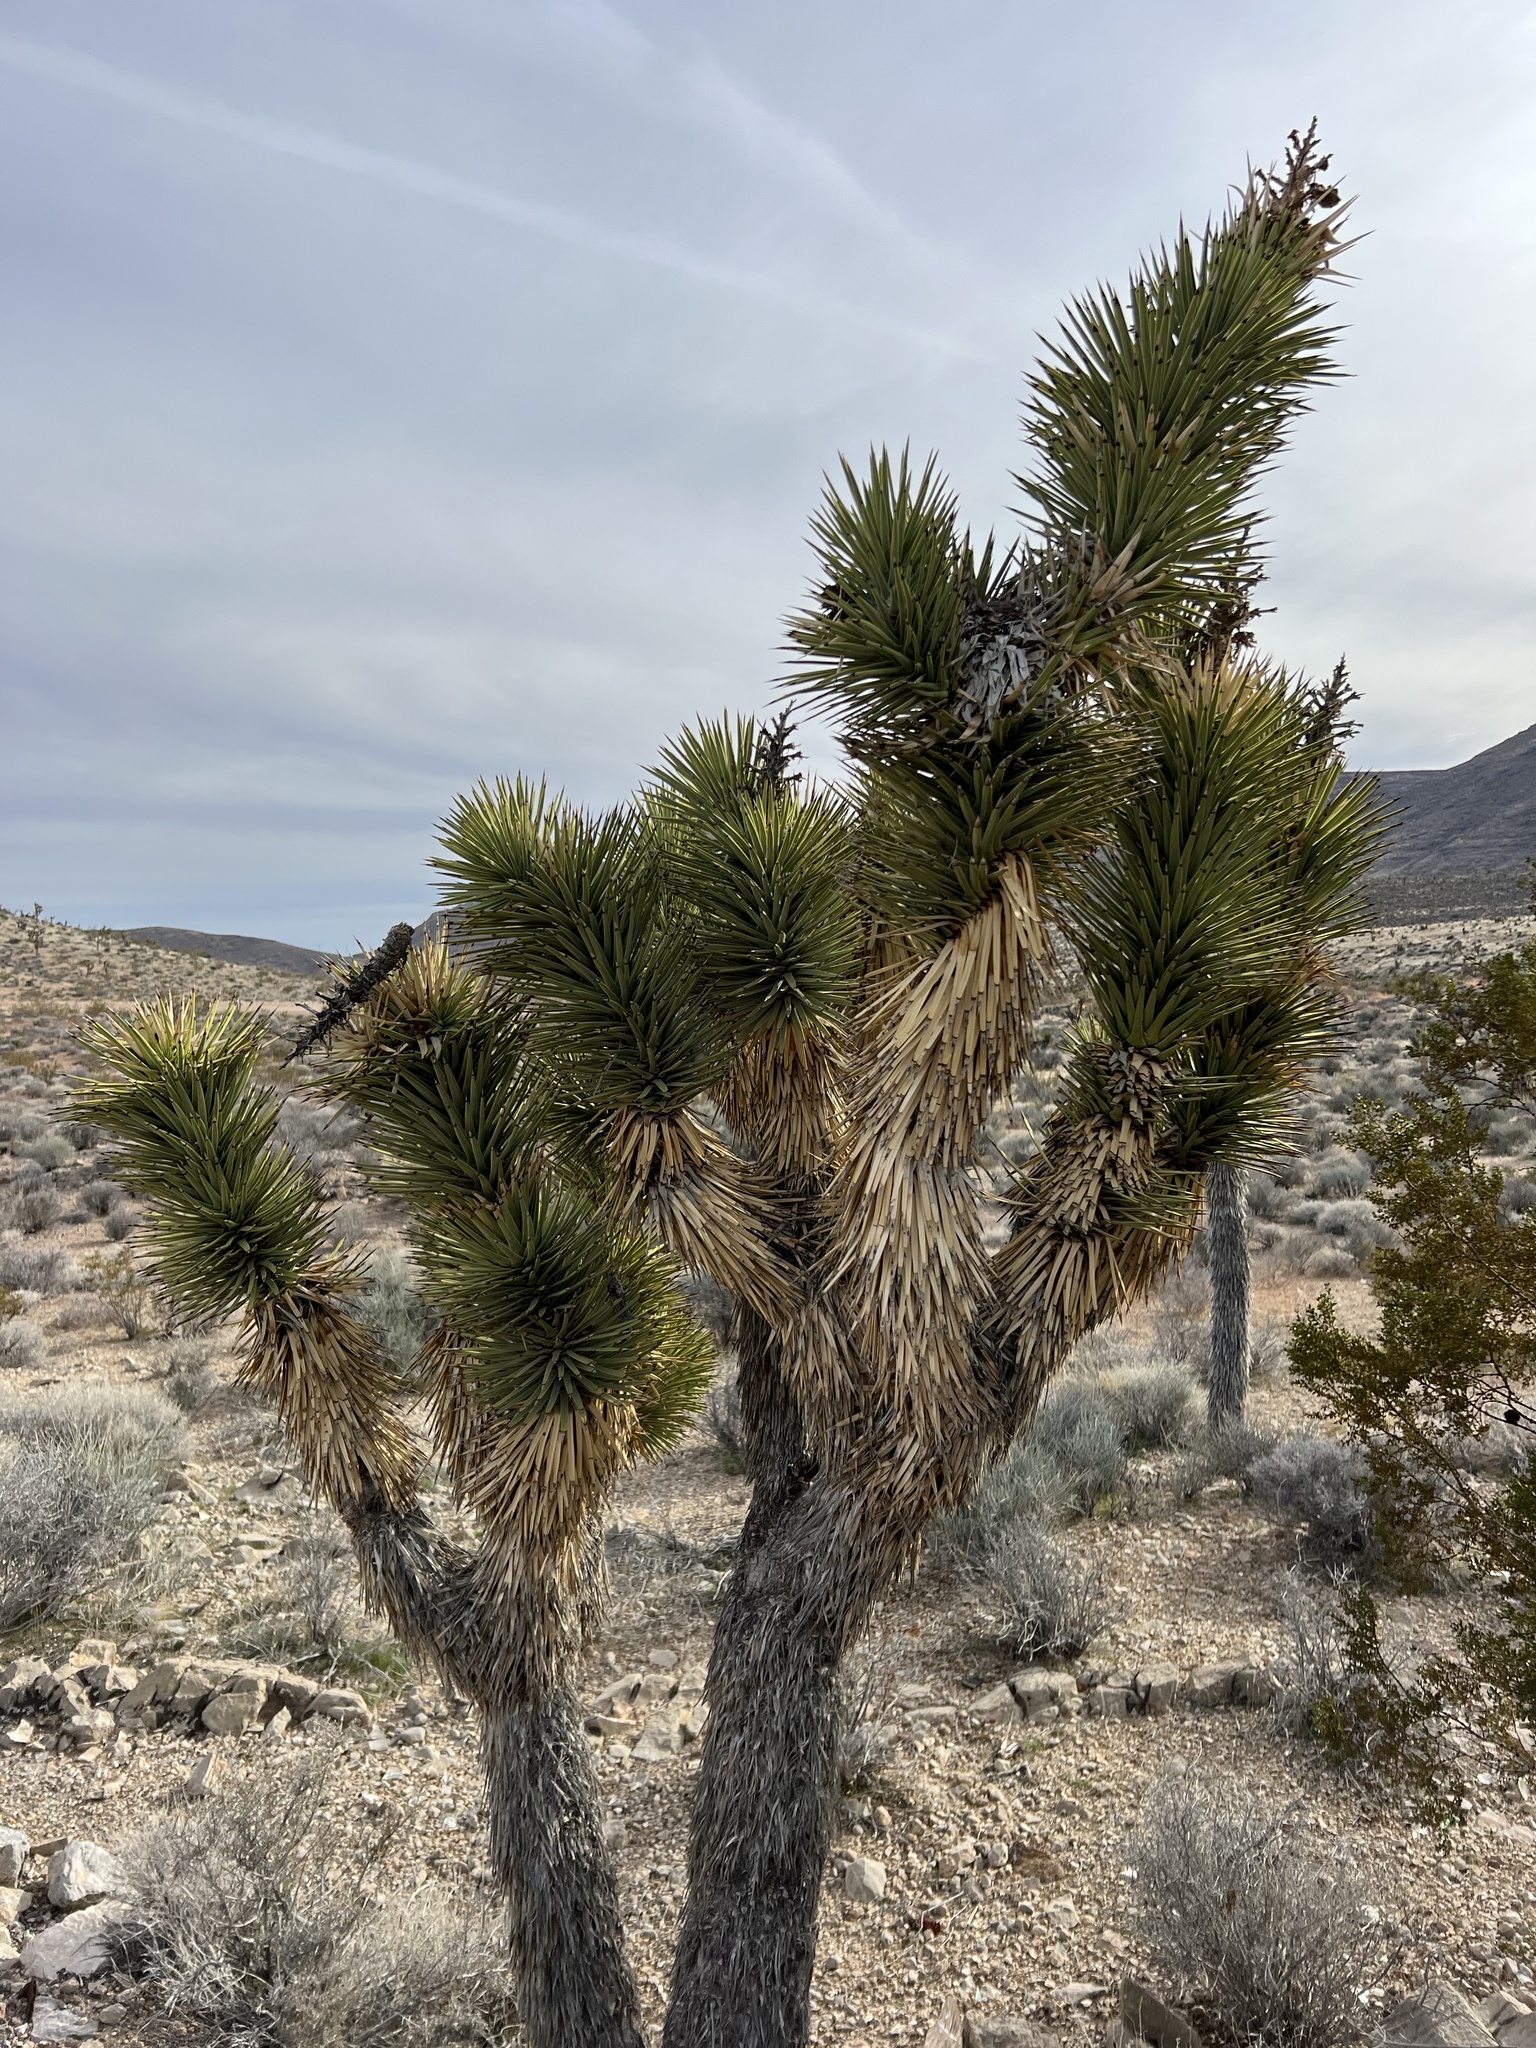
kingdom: Plantae
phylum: Tracheophyta
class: Liliopsida
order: Asparagales
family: Asparagaceae
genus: Yucca
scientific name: Yucca brevifolia
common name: Joshua tree
